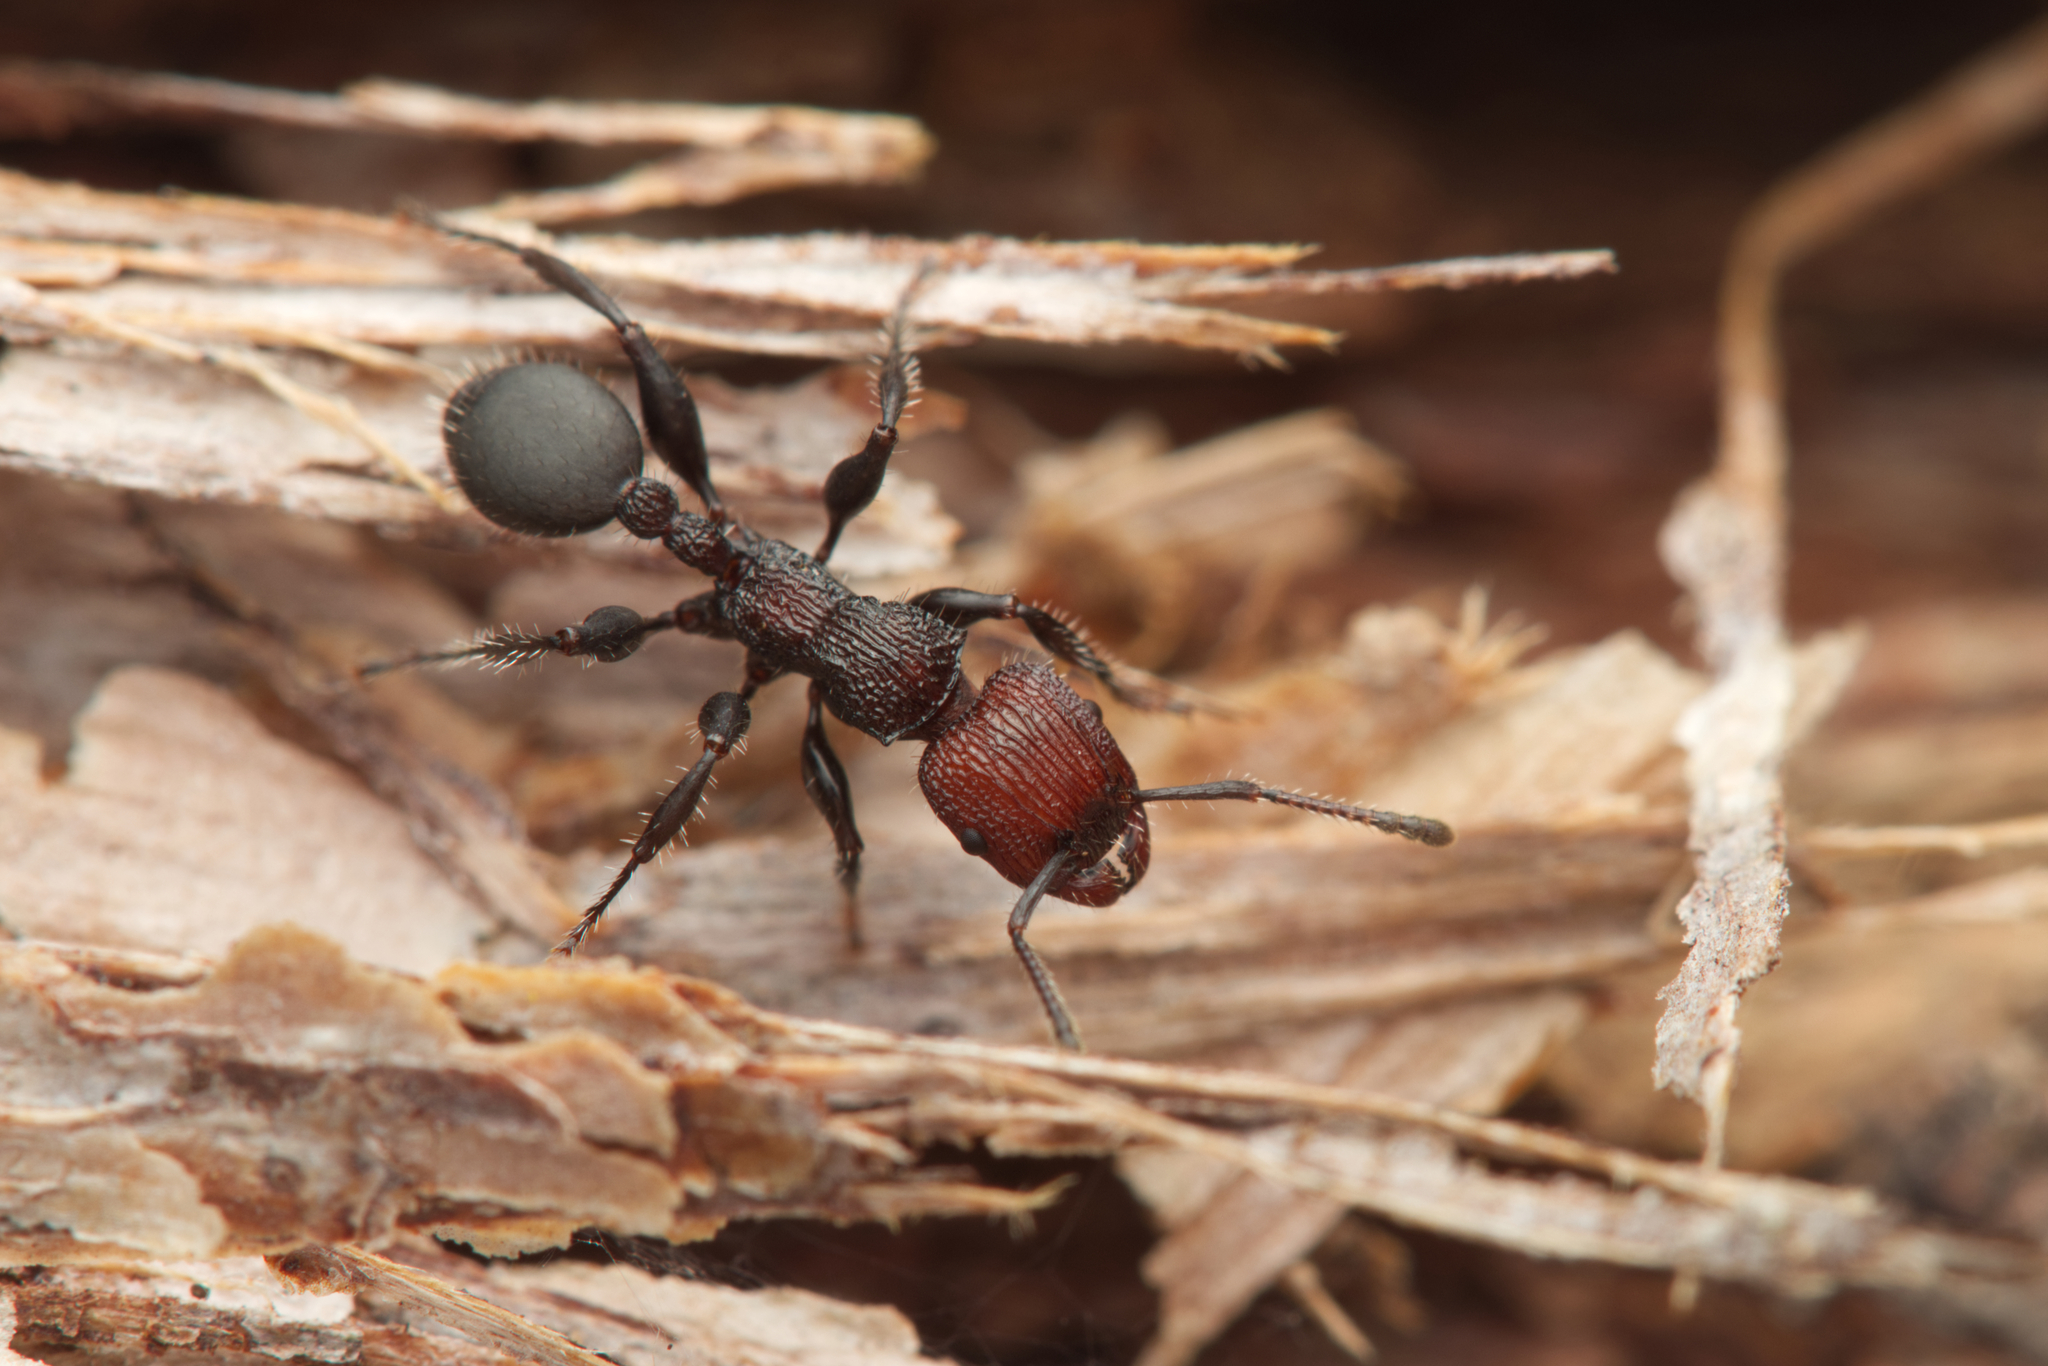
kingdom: Animalia
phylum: Arthropoda
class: Insecta
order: Hymenoptera
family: Formicidae
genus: Podomyrma
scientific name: Podomyrma micans
